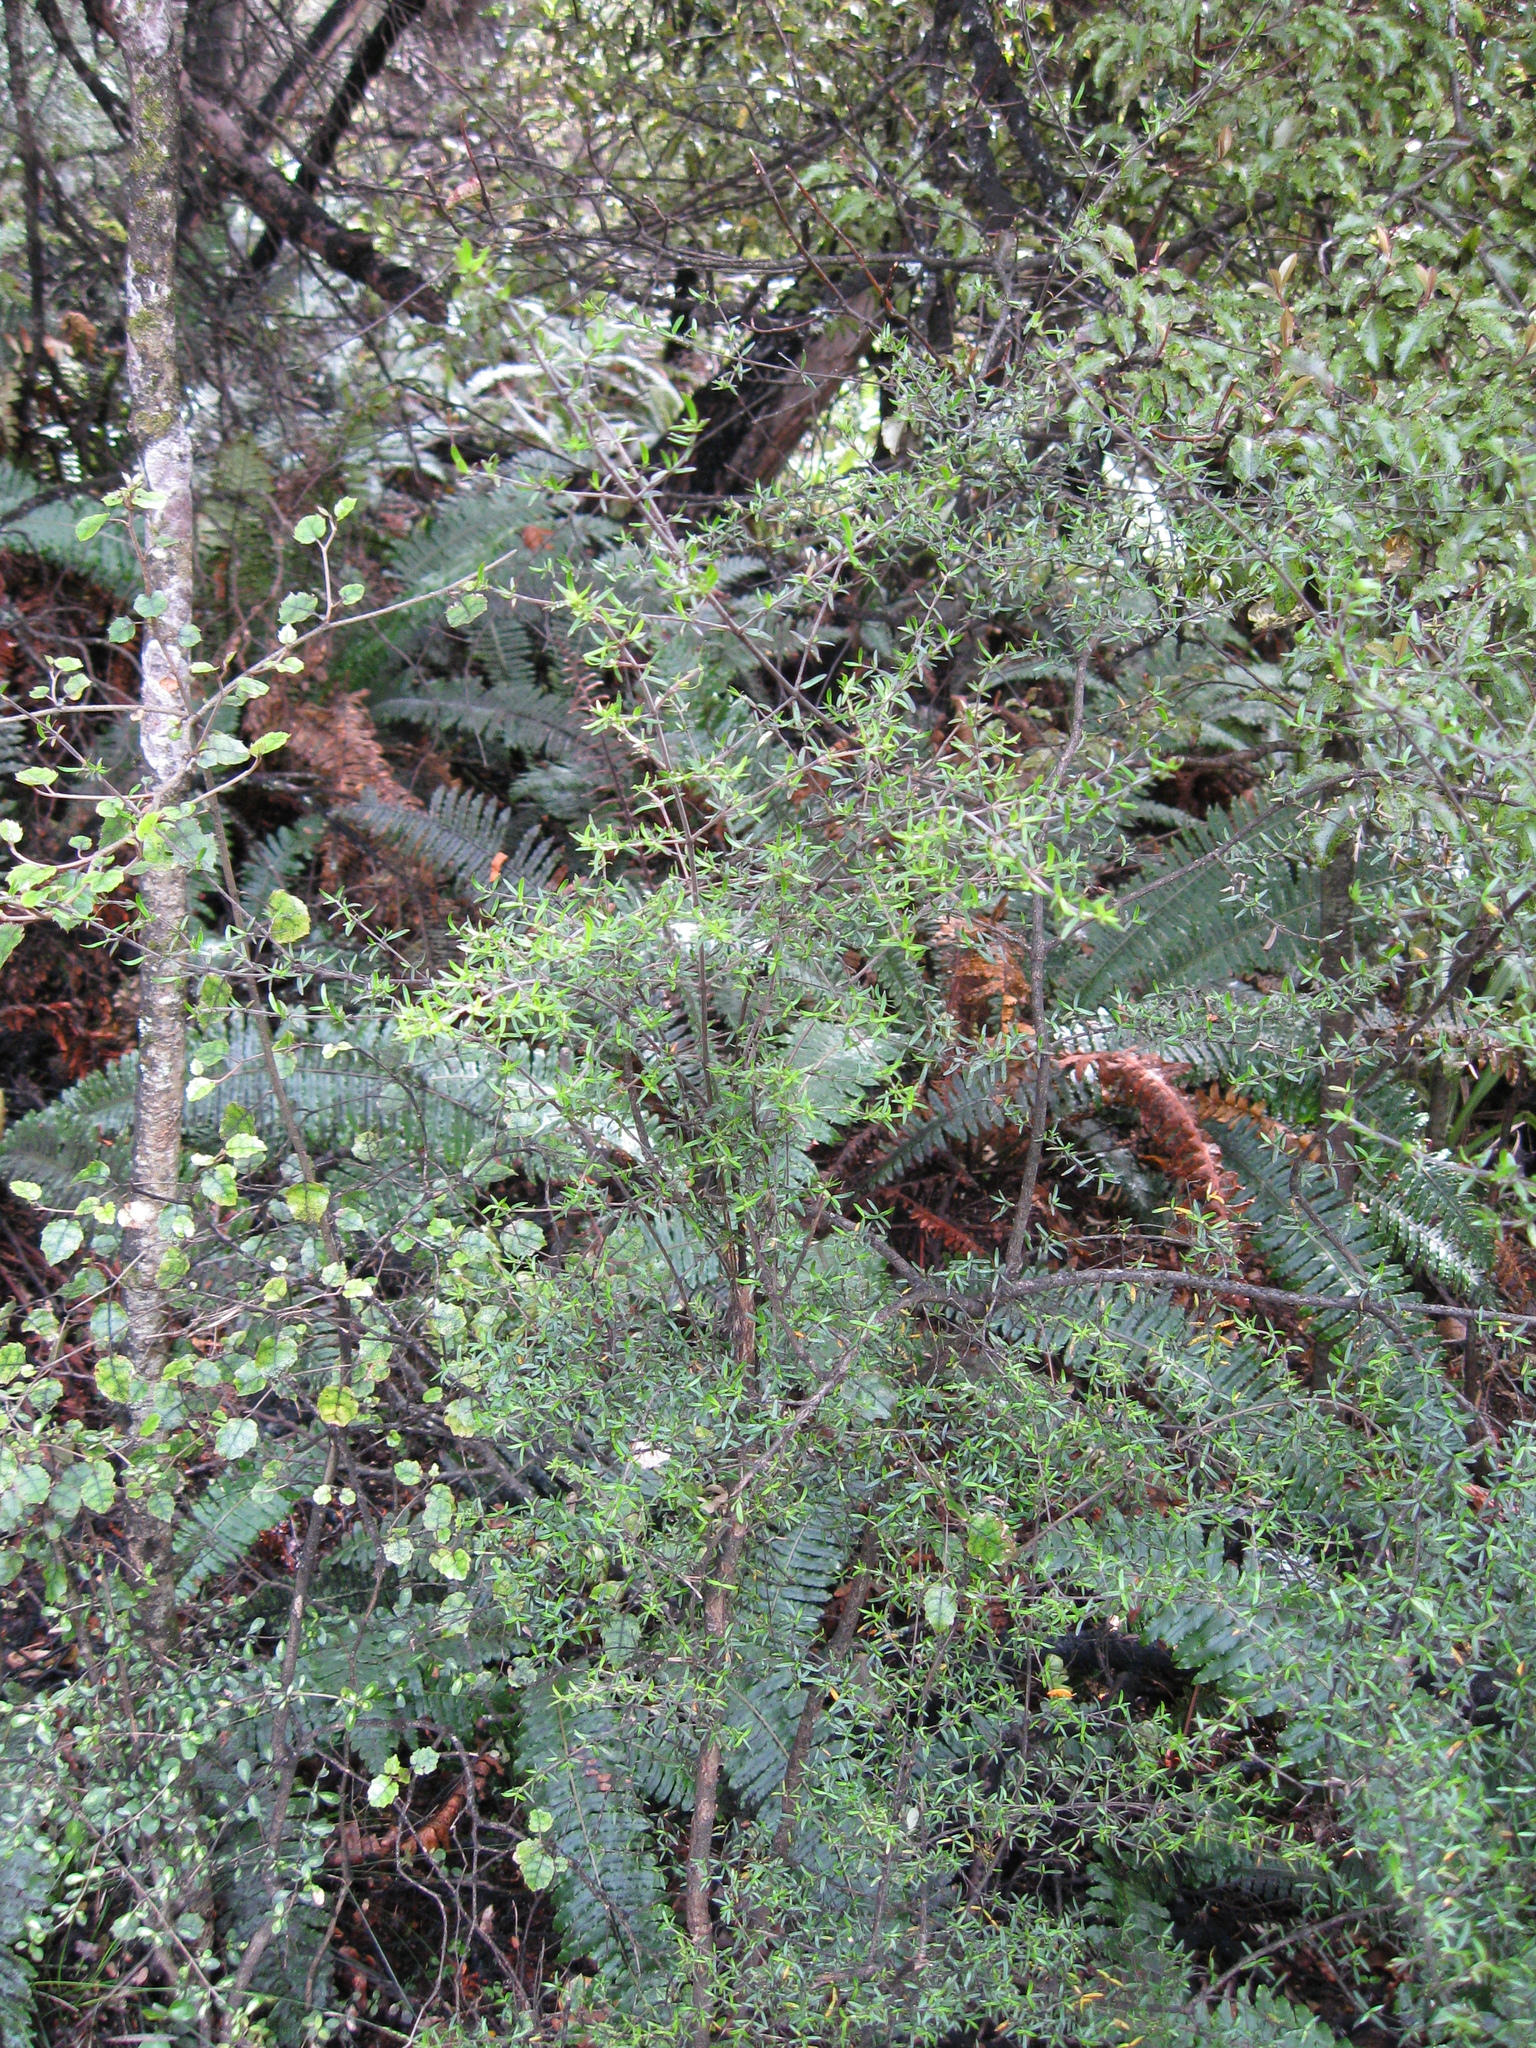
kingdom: Plantae
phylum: Tracheophyta
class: Magnoliopsida
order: Gentianales
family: Rubiaceae
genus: Coprosma
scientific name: Coprosma microcarpa
